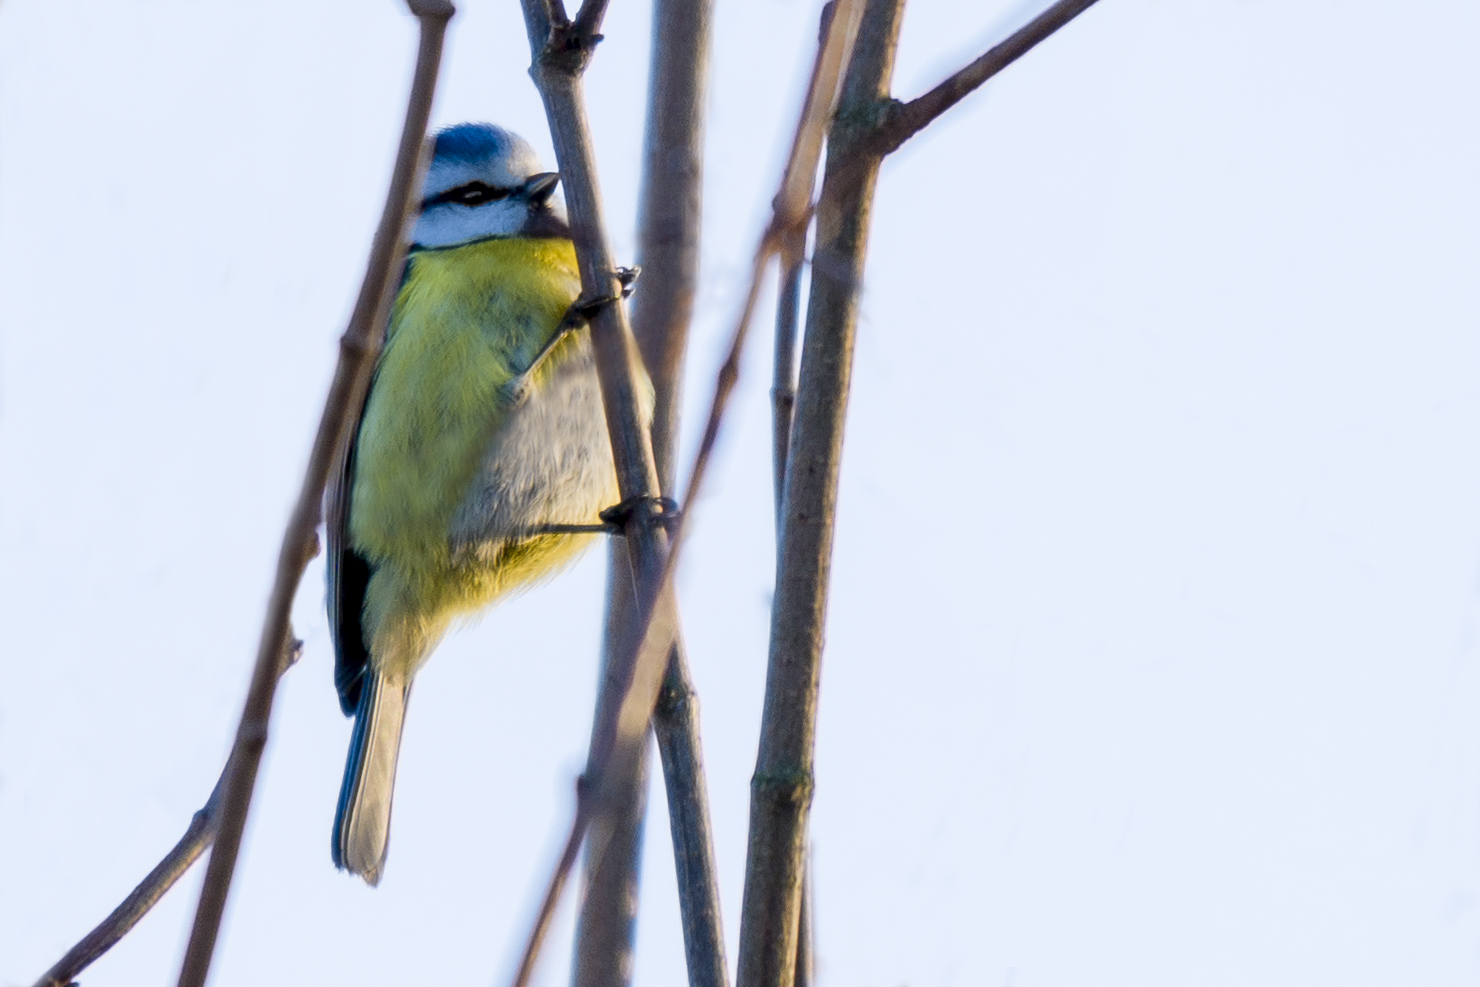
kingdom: Animalia
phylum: Chordata
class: Aves
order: Passeriformes
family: Paridae
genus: Cyanistes
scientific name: Cyanistes caeruleus
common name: Eurasian blue tit
